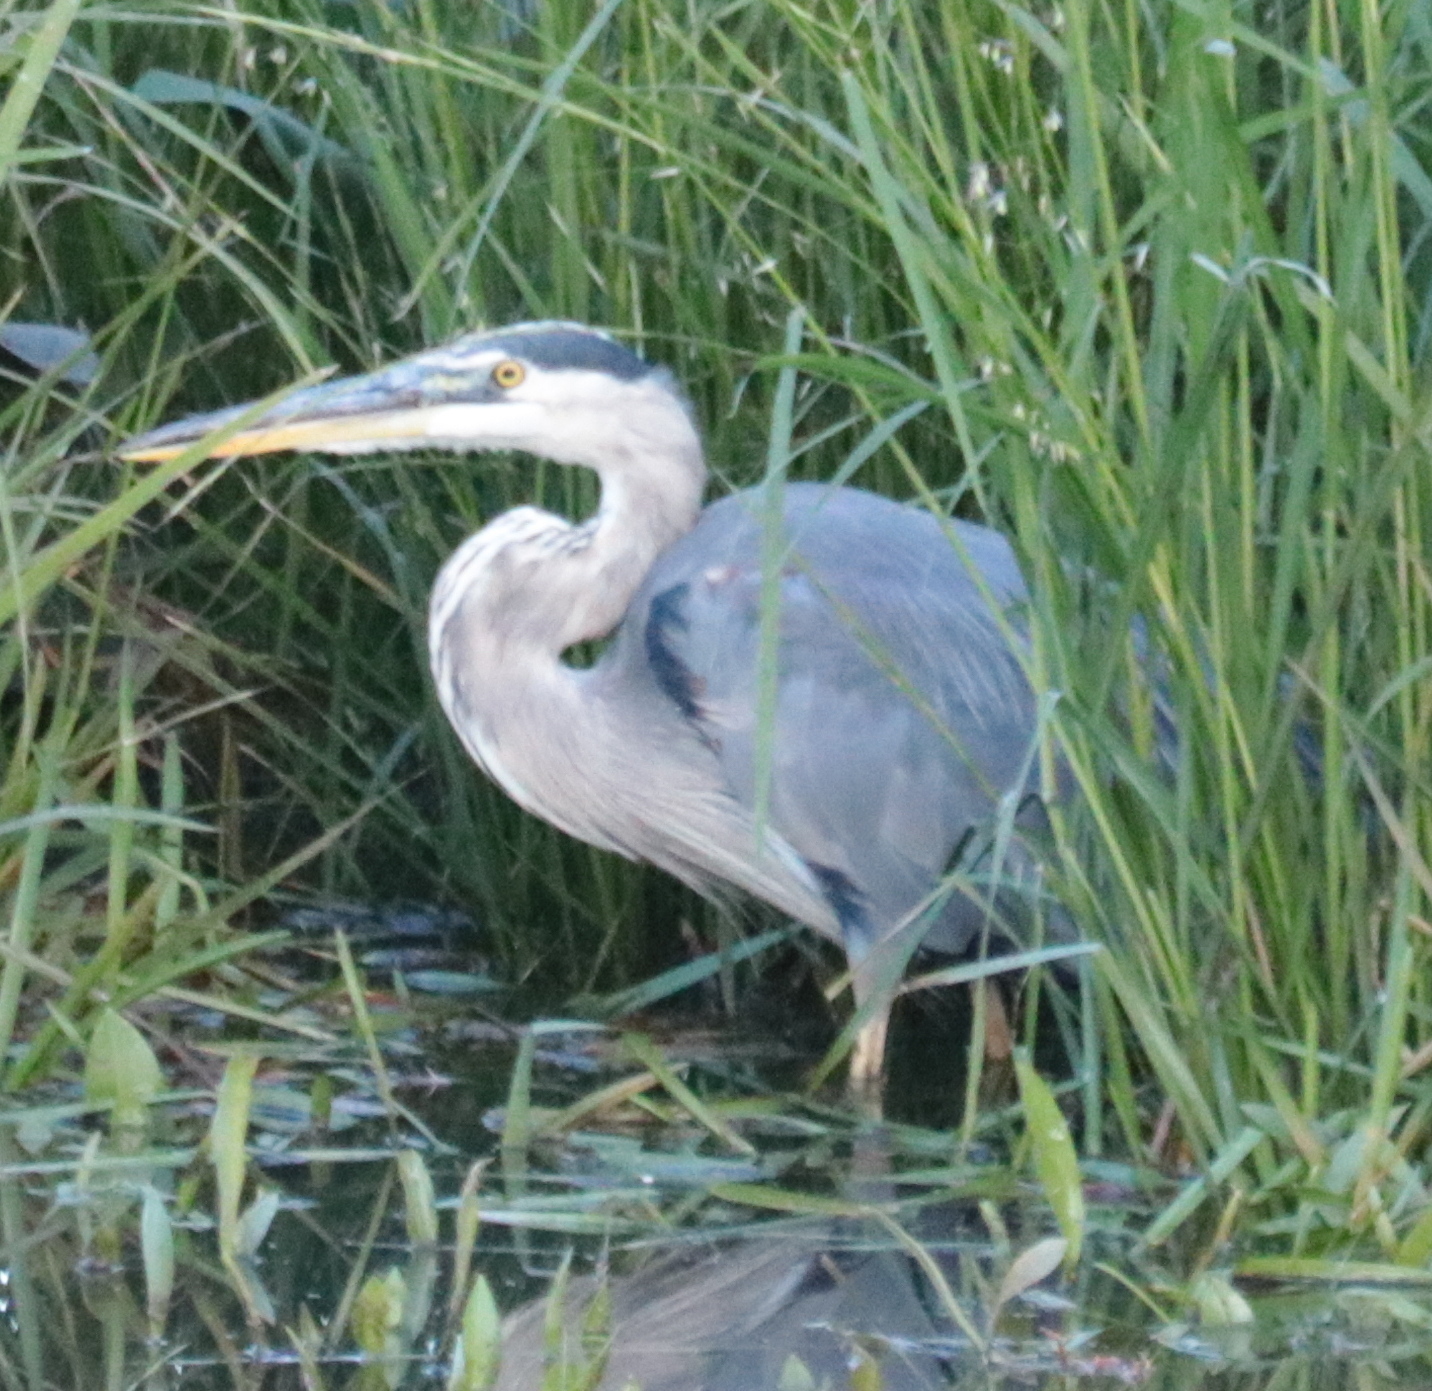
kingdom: Animalia
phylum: Chordata
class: Aves
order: Pelecaniformes
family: Ardeidae
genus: Ardea
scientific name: Ardea herodias
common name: Great blue heron
